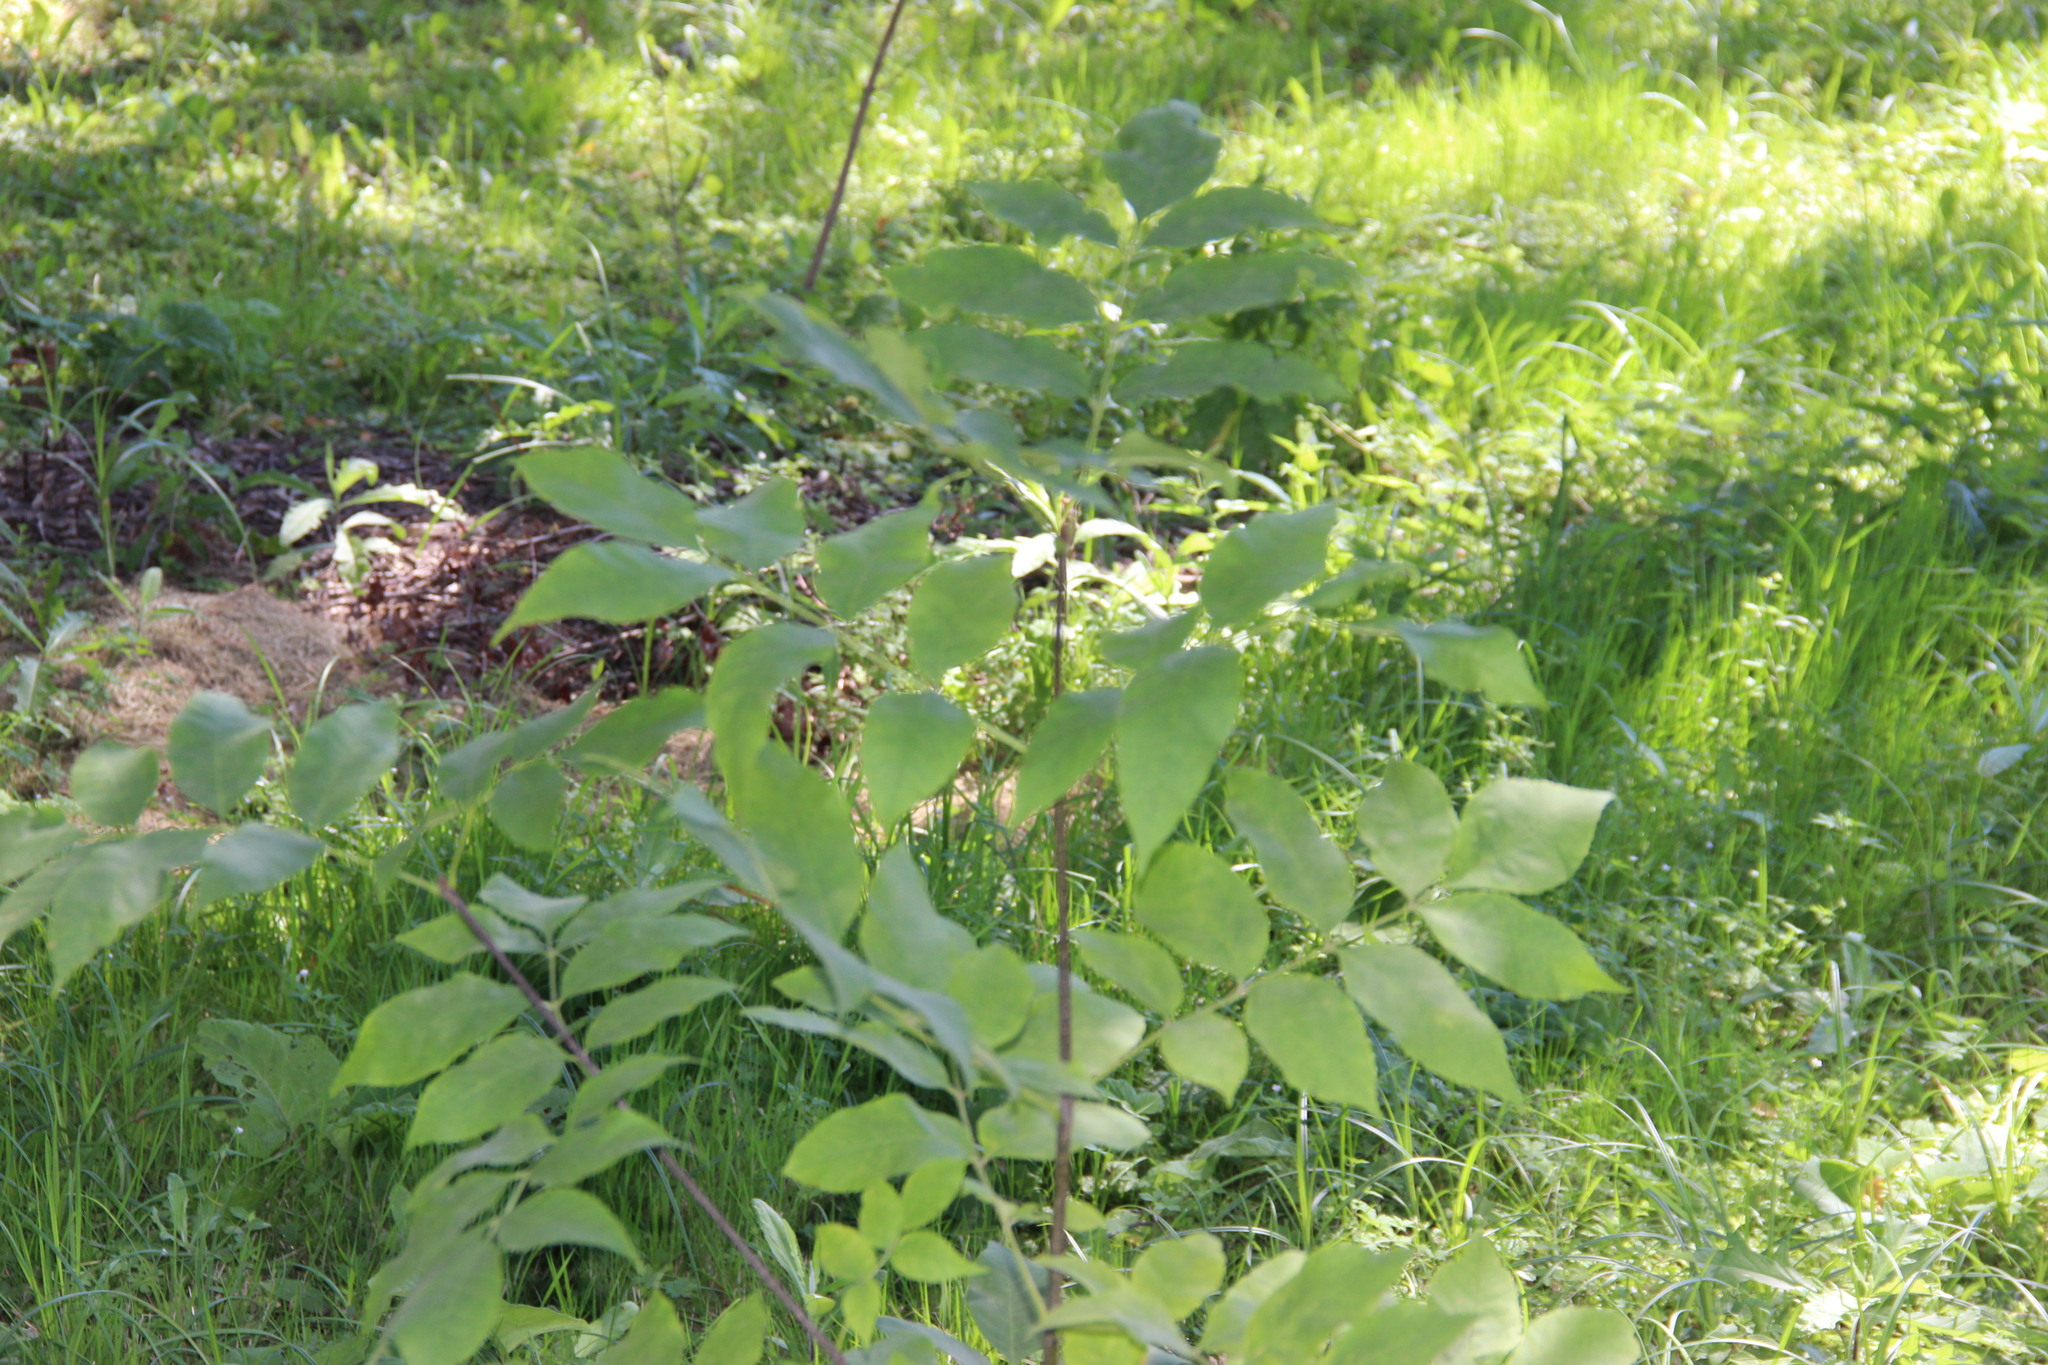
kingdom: Plantae
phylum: Tracheophyta
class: Magnoliopsida
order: Lamiales
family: Oleaceae
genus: Fraxinus
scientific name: Fraxinus pennsylvanica
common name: Green ash
